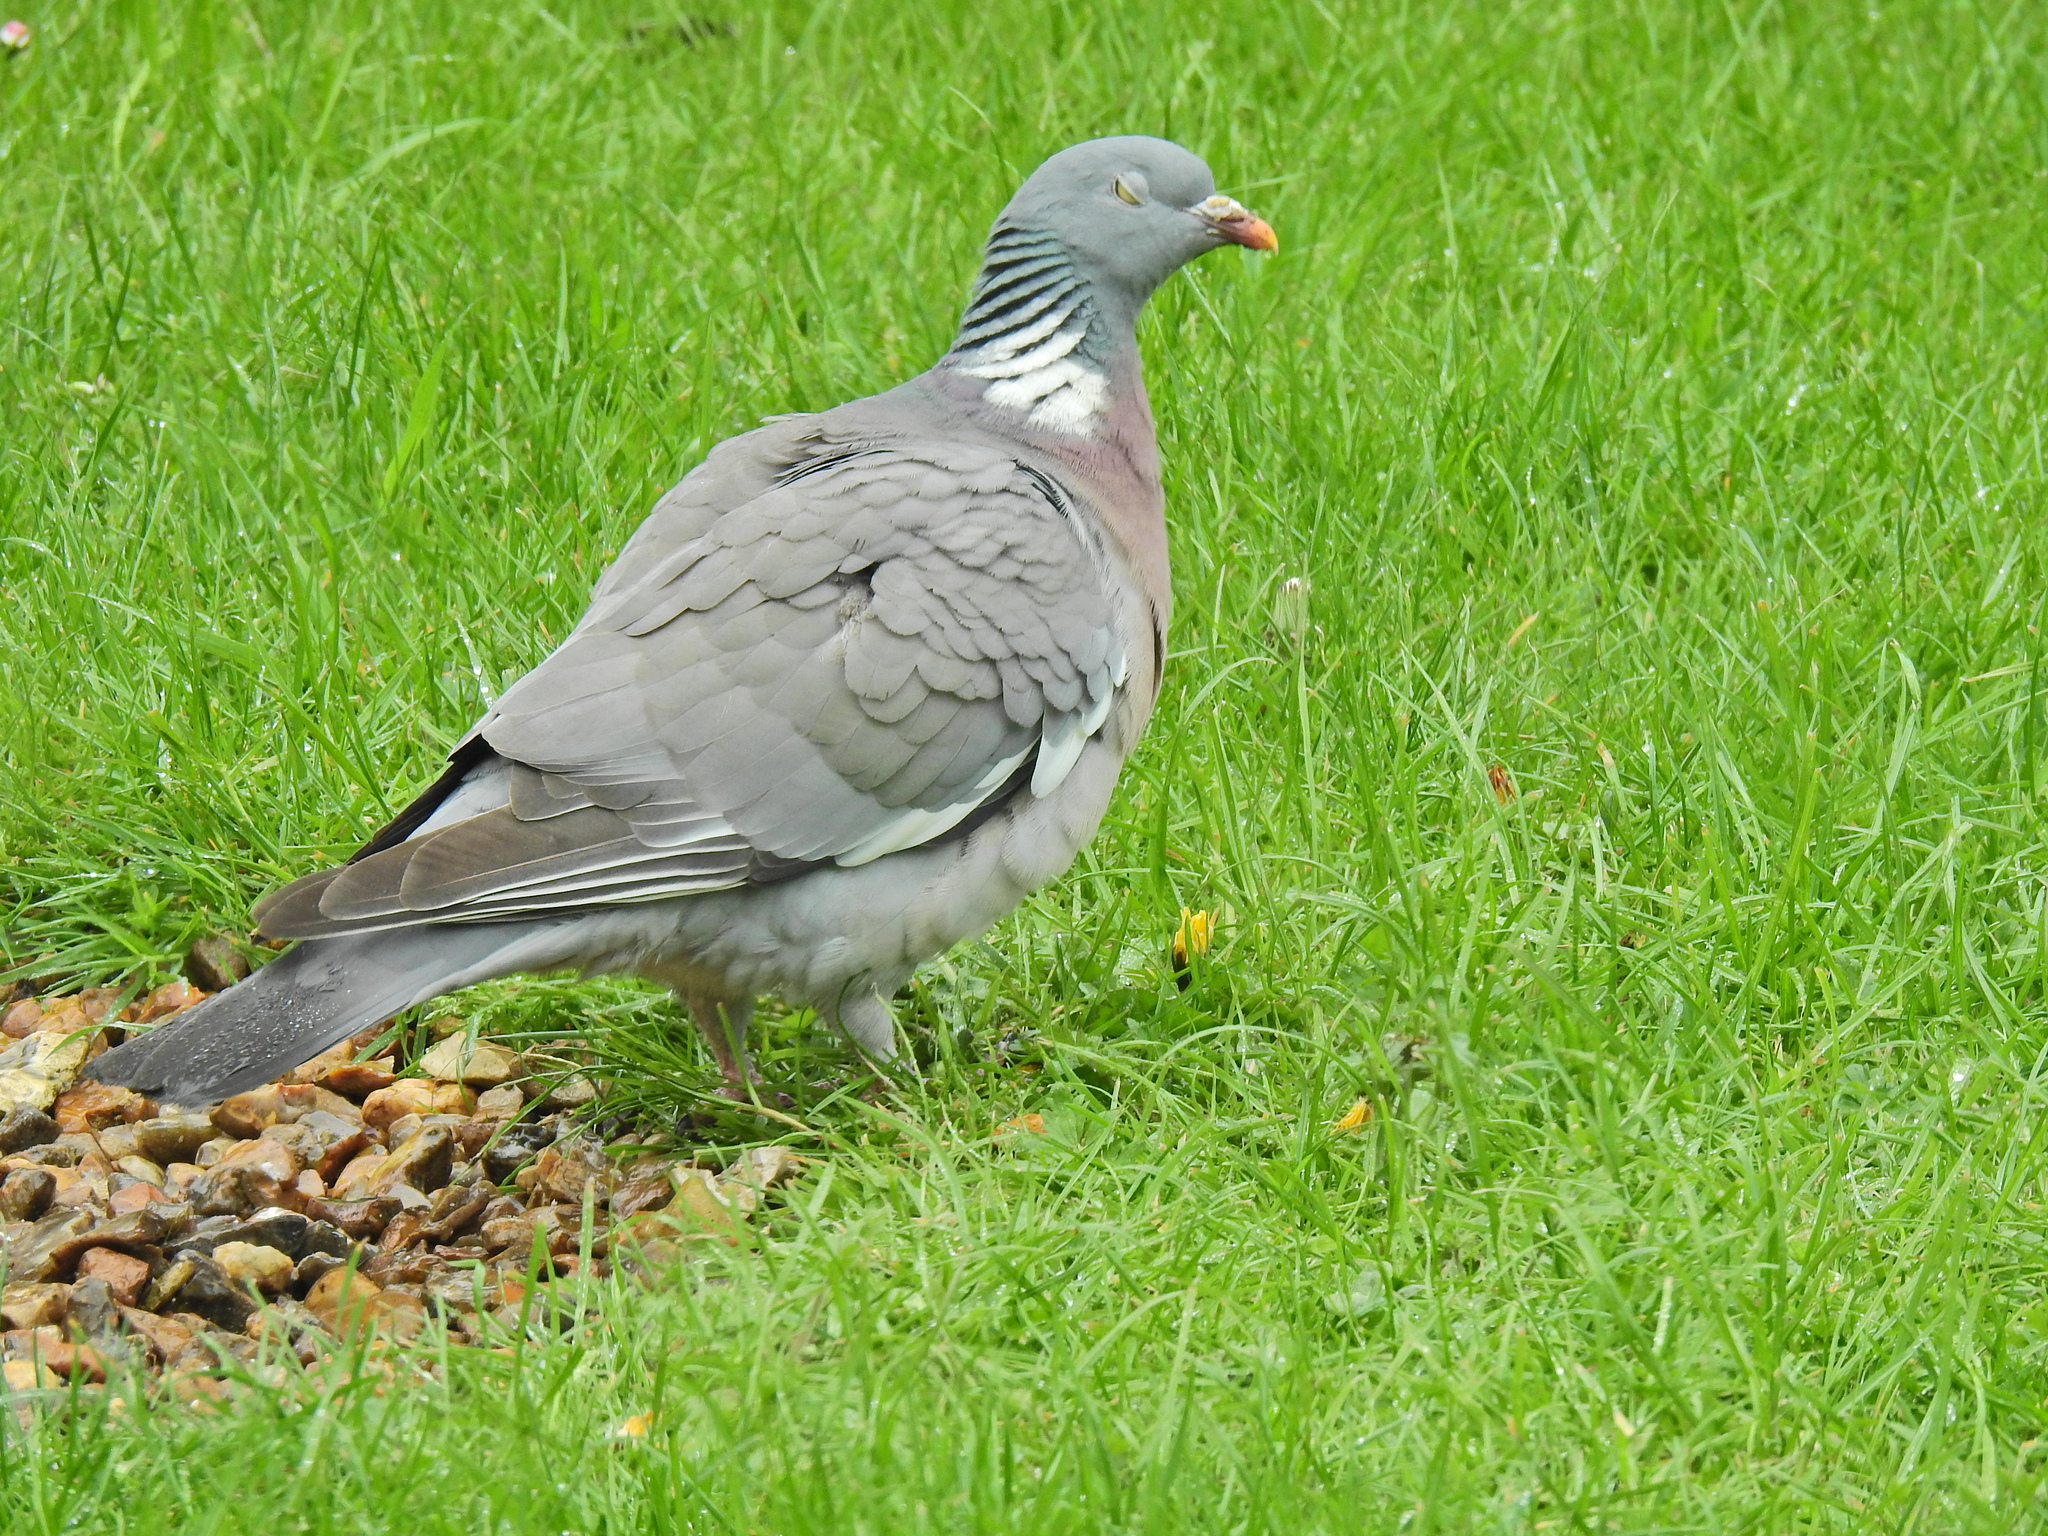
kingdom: Animalia
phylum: Chordata
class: Aves
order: Columbiformes
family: Columbidae
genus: Columba
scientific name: Columba palumbus
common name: Common wood pigeon
